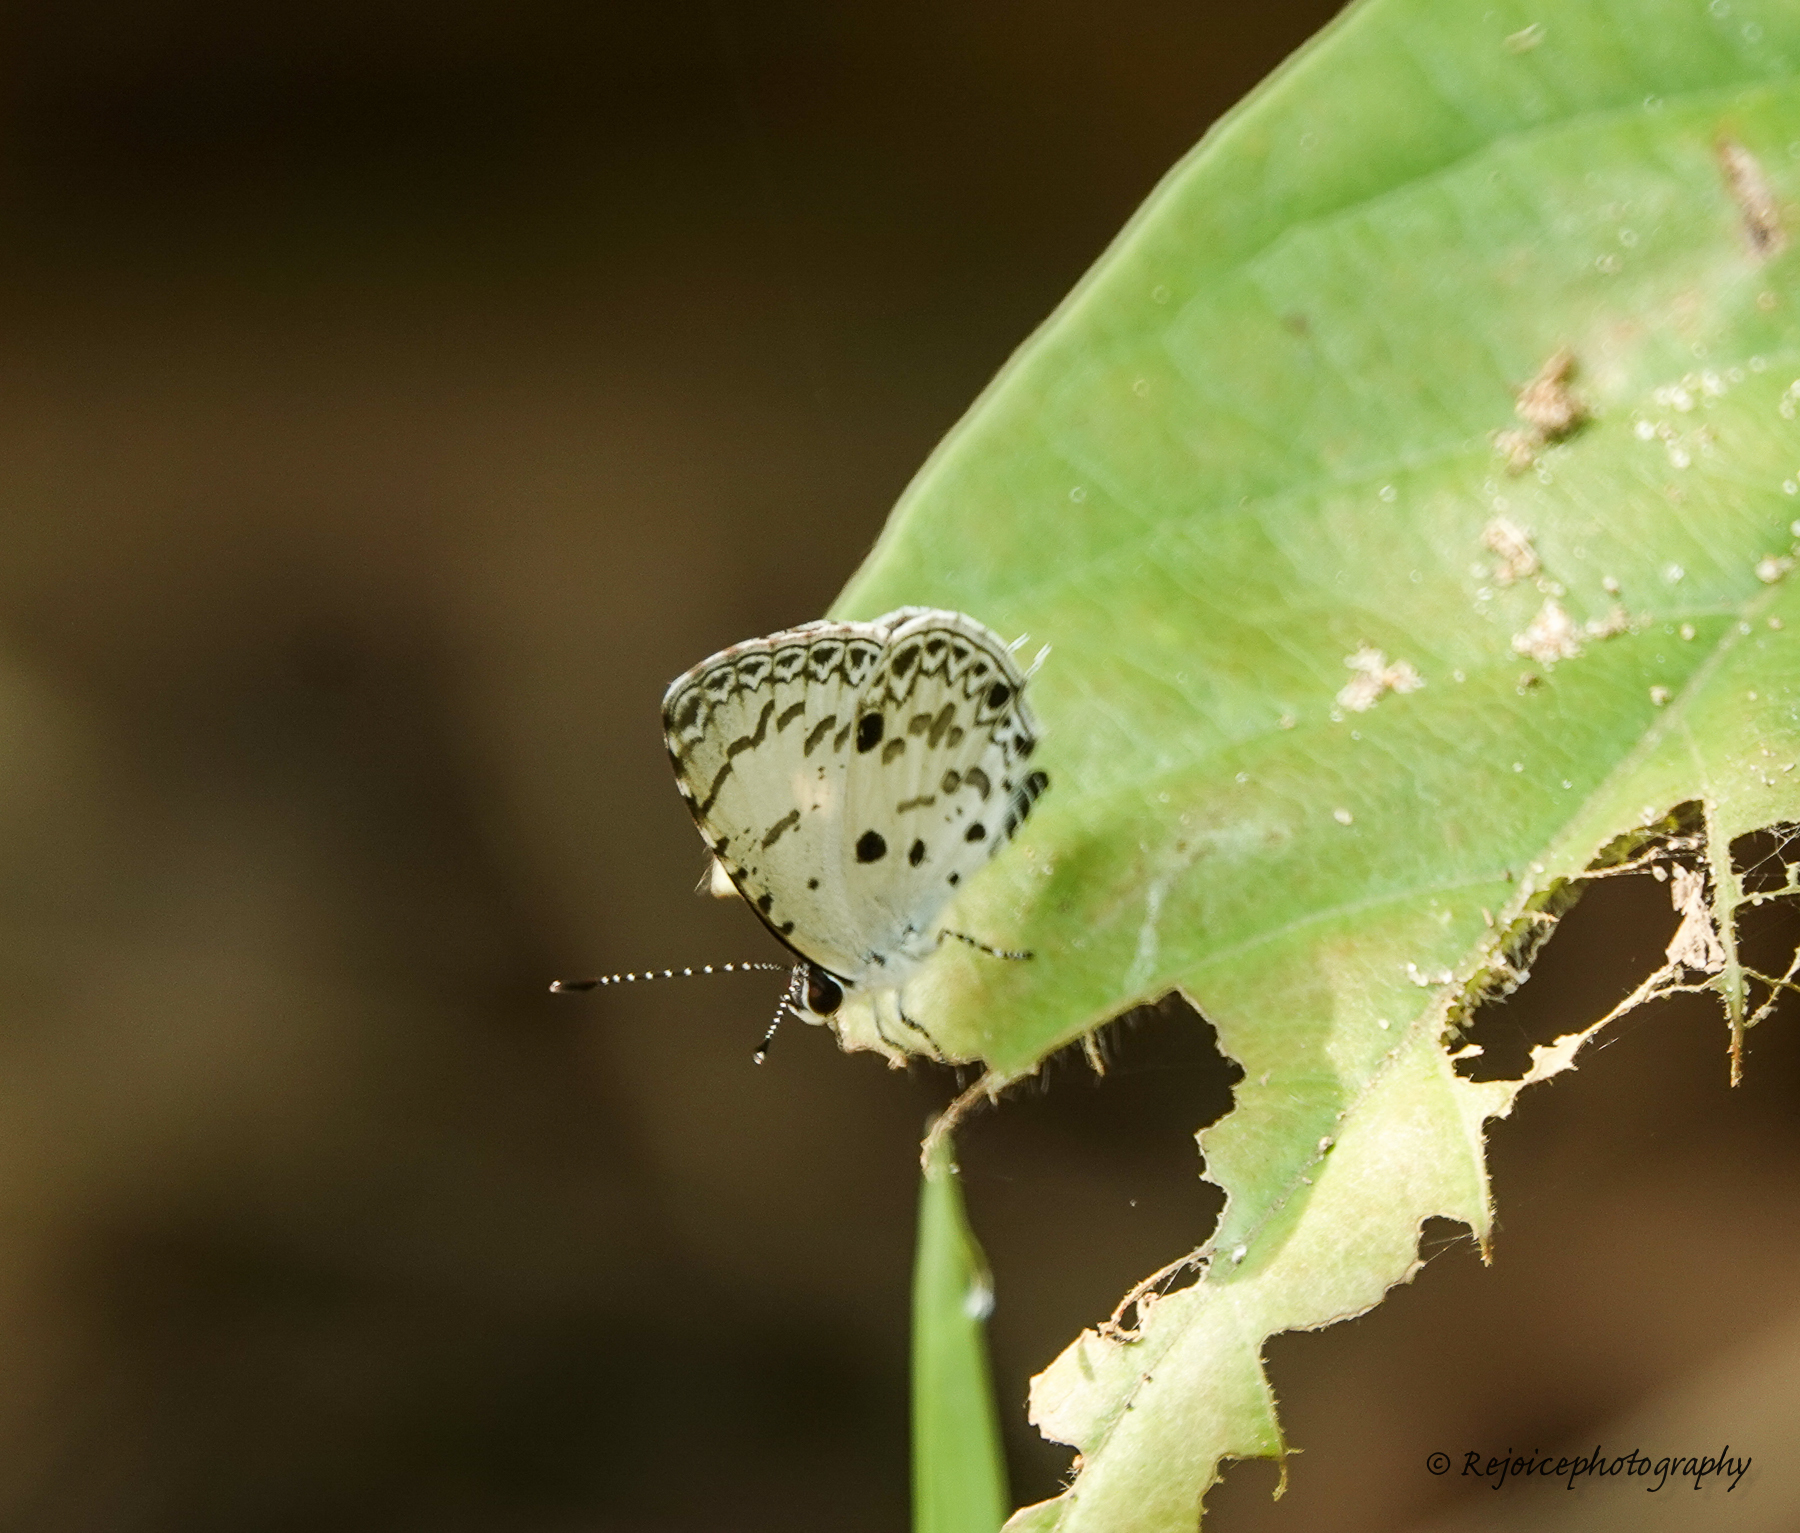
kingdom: Animalia
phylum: Arthropoda
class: Insecta
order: Lepidoptera
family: Lycaenidae
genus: Megisba
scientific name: Megisba malaya
